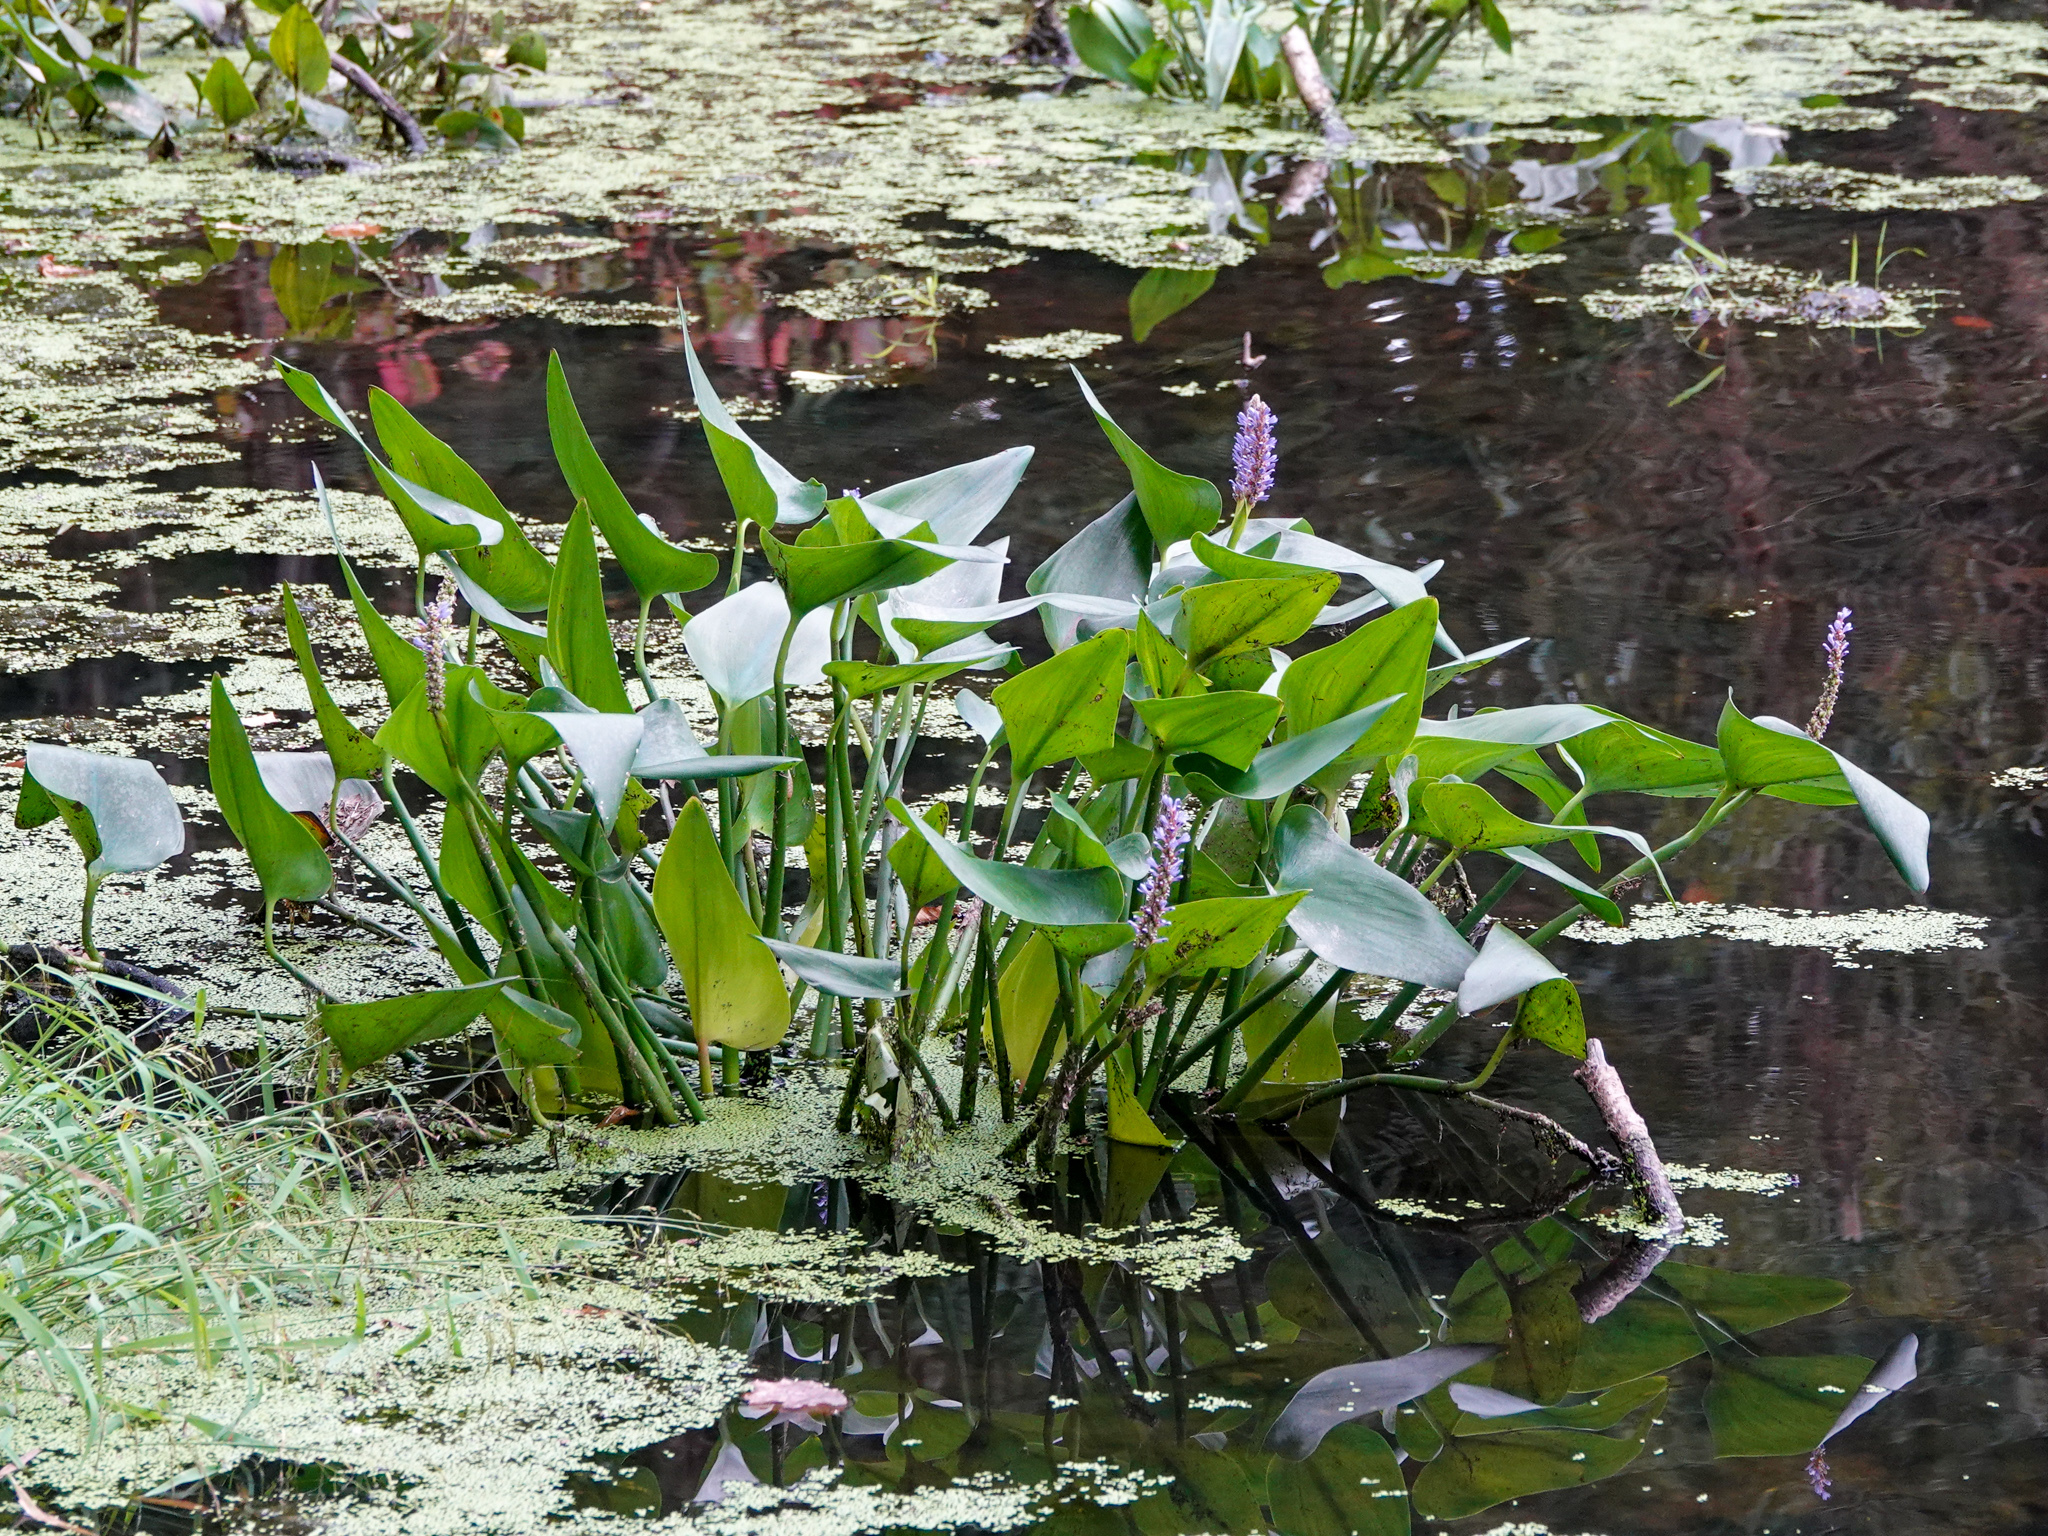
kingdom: Plantae
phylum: Tracheophyta
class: Liliopsida
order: Commelinales
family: Pontederiaceae
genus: Pontederia
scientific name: Pontederia cordata
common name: Pickerelweed
